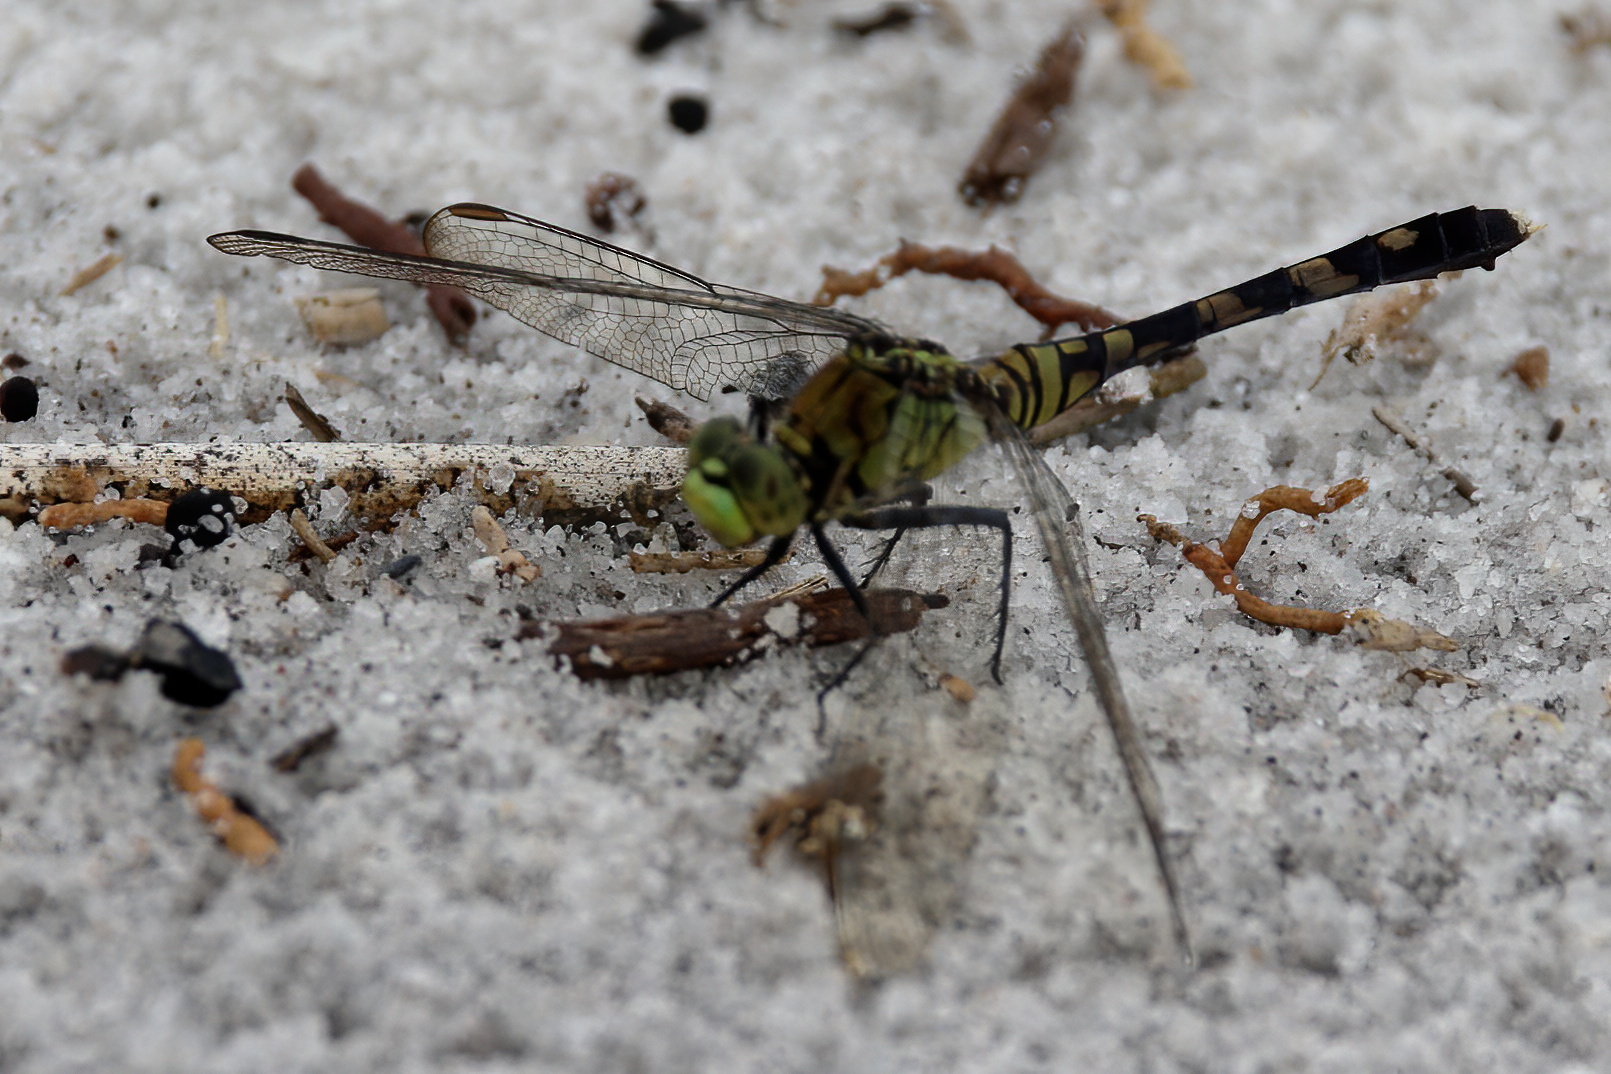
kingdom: Animalia
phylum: Arthropoda
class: Insecta
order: Odonata
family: Libellulidae
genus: Erythemis
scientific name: Erythemis simplicicollis
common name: Eastern pondhawk
